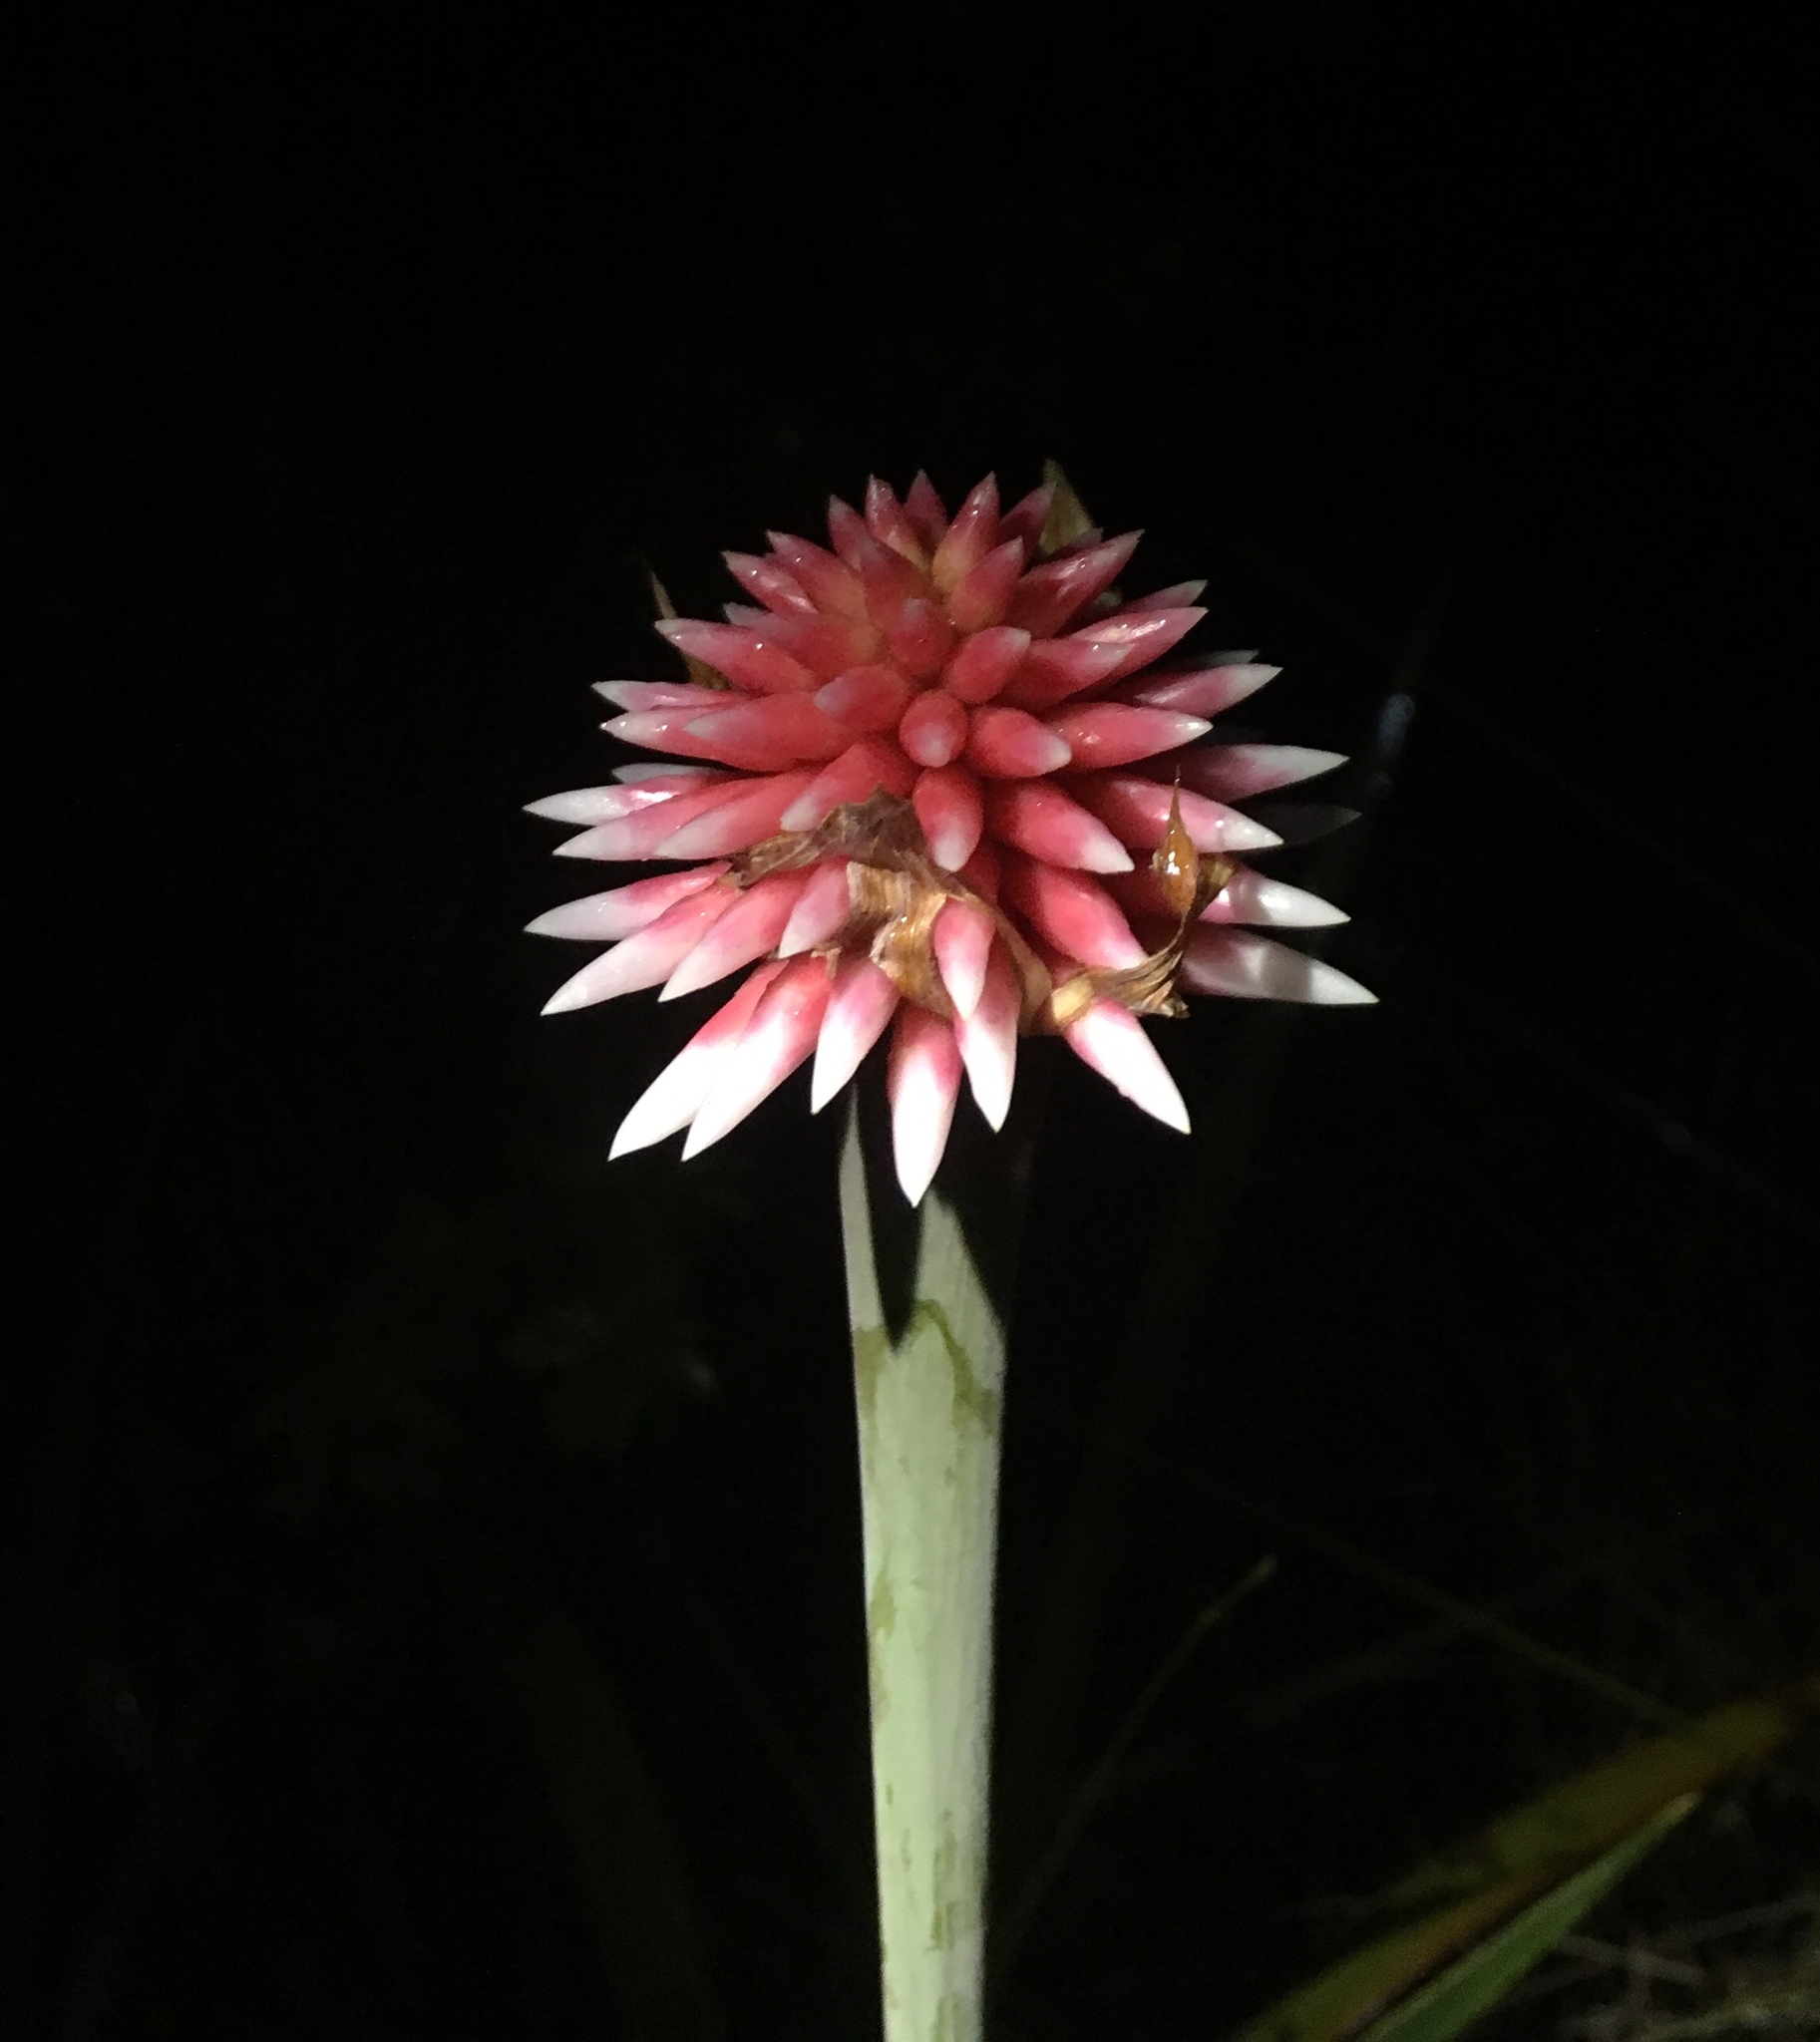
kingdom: Plantae
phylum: Tracheophyta
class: Liliopsida
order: Poales
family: Rapateaceae
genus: Guacamaya
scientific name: Guacamaya superba
